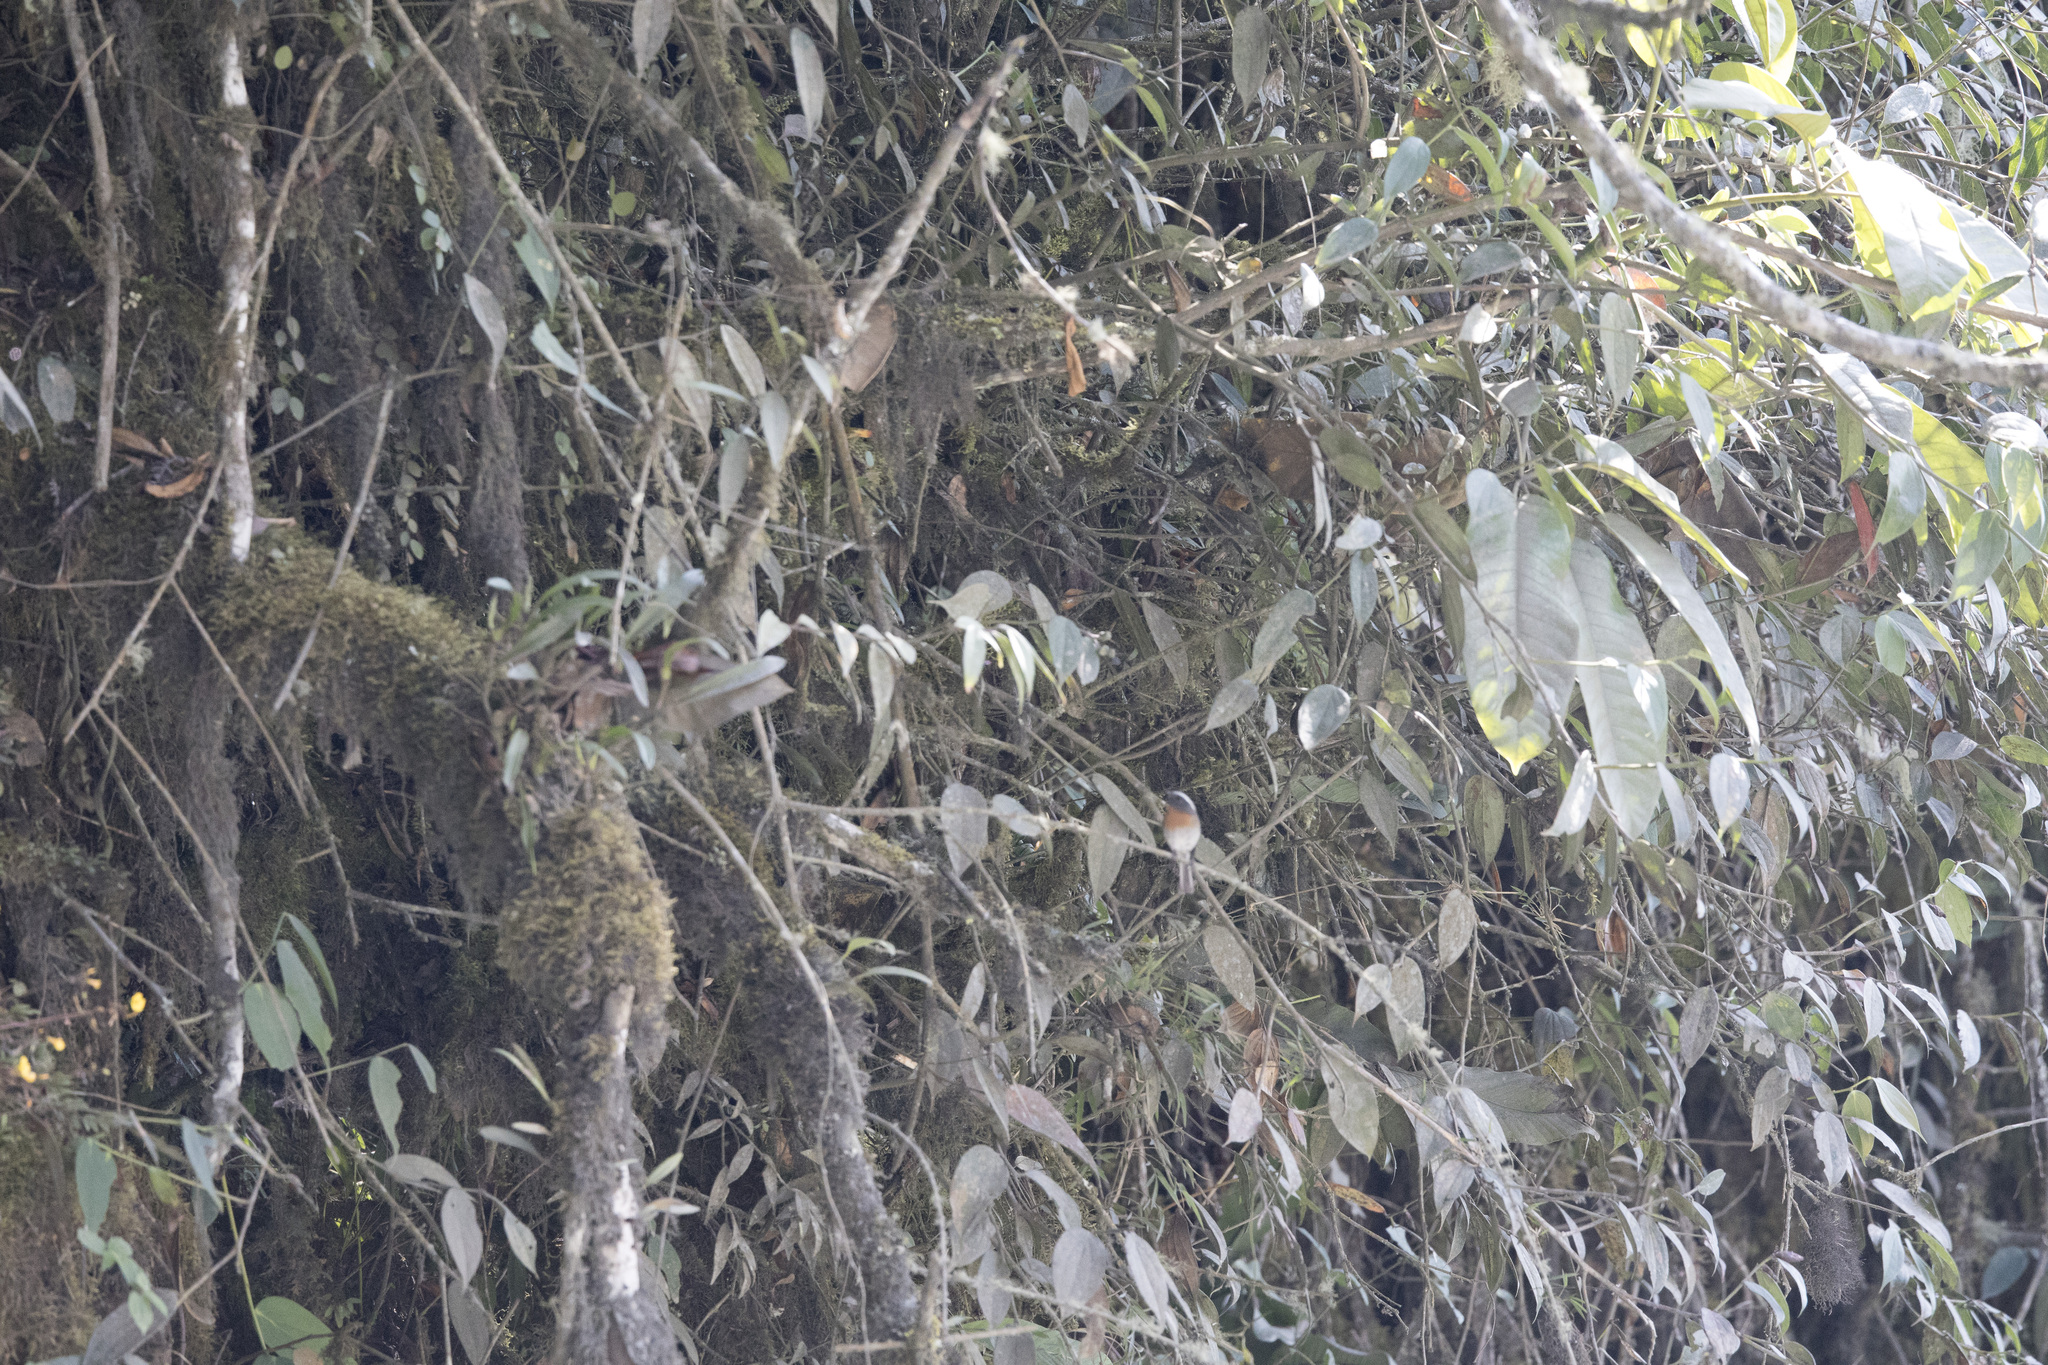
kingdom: Animalia
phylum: Chordata
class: Aves
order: Passeriformes
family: Tyrannidae
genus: Ochthoeca
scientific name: Ochthoeca rufipectoralis
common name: Rufous-breasted chat-tyrant
